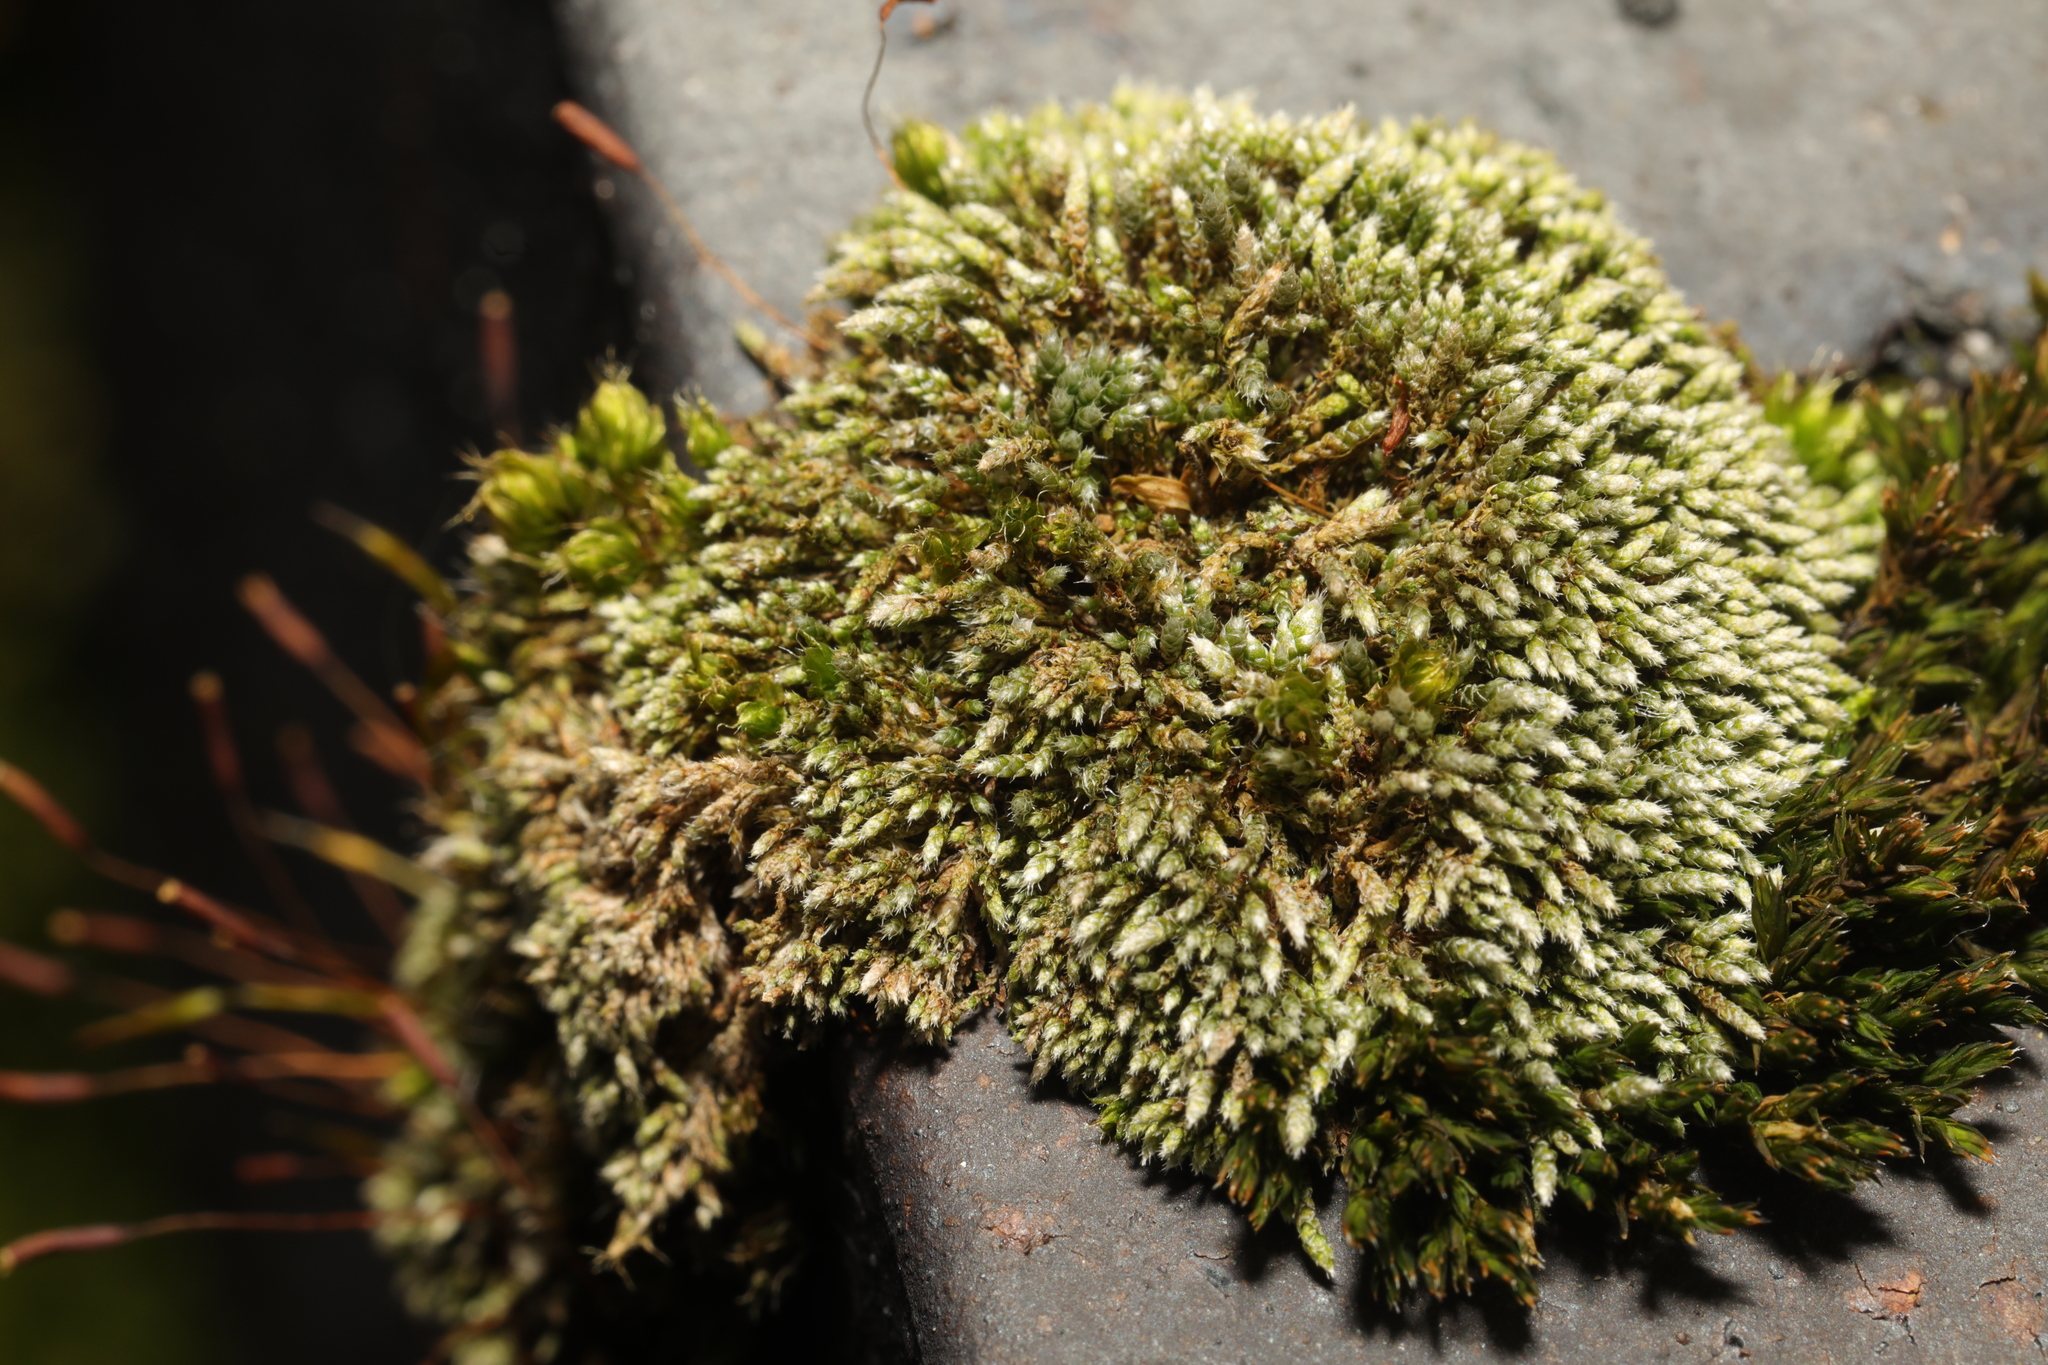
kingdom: Plantae
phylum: Bryophyta
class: Bryopsida
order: Bryales
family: Bryaceae
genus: Bryum
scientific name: Bryum argenteum
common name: Silver-moss
